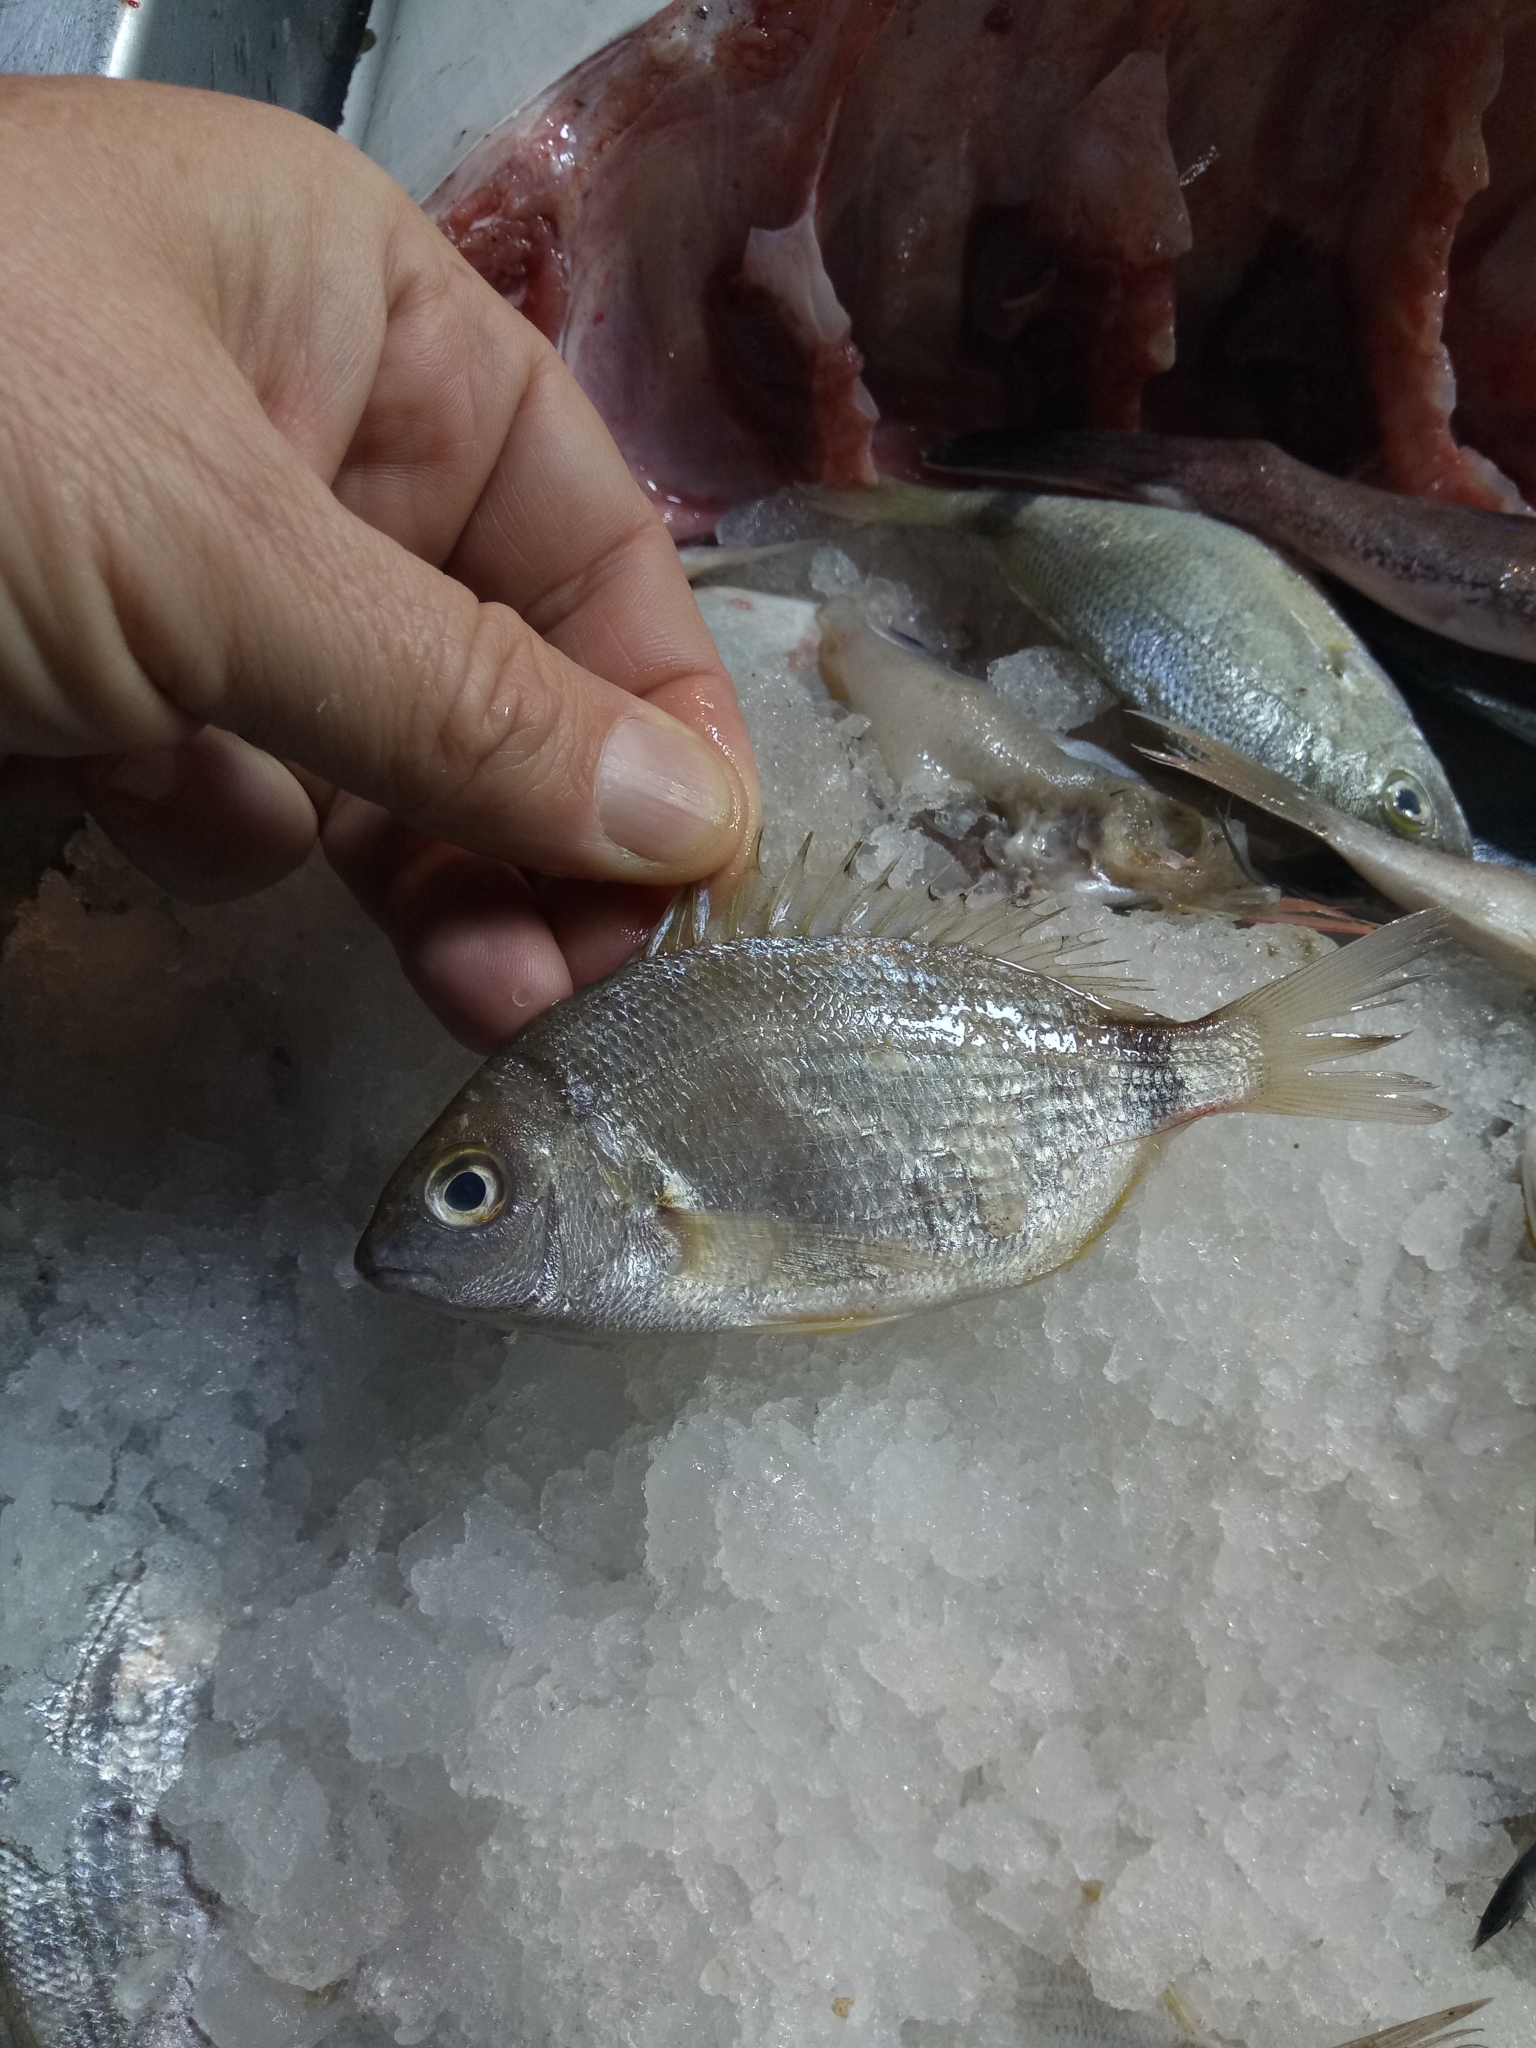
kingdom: Animalia
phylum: Chordata
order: Perciformes
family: Sparidae
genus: Diplodus
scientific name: Diplodus annularis
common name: Annular seabream
